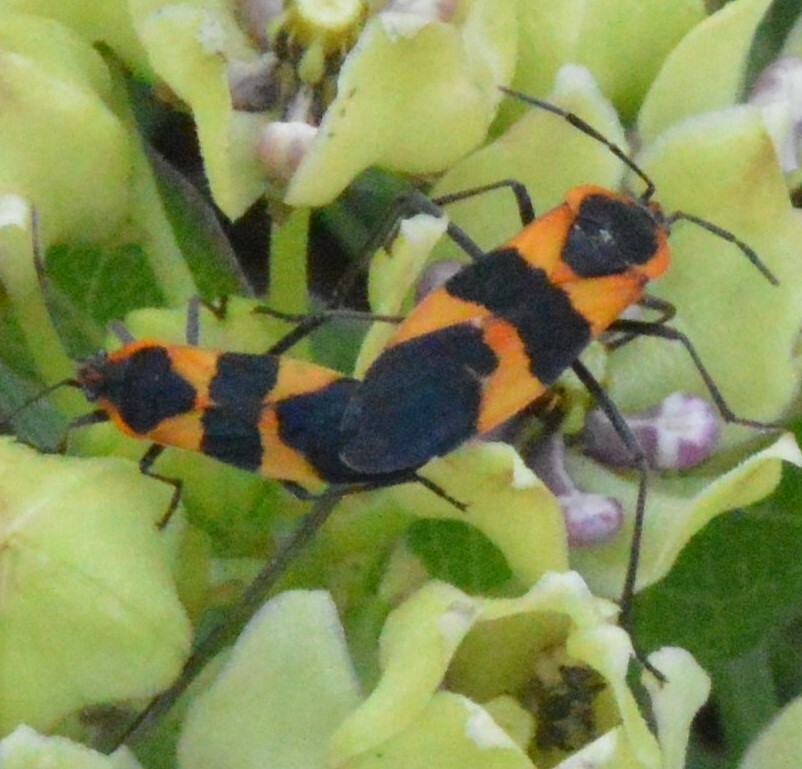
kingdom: Animalia
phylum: Arthropoda
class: Insecta
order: Hemiptera
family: Lygaeidae
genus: Oncopeltus
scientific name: Oncopeltus fasciatus
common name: Large milkweed bug
